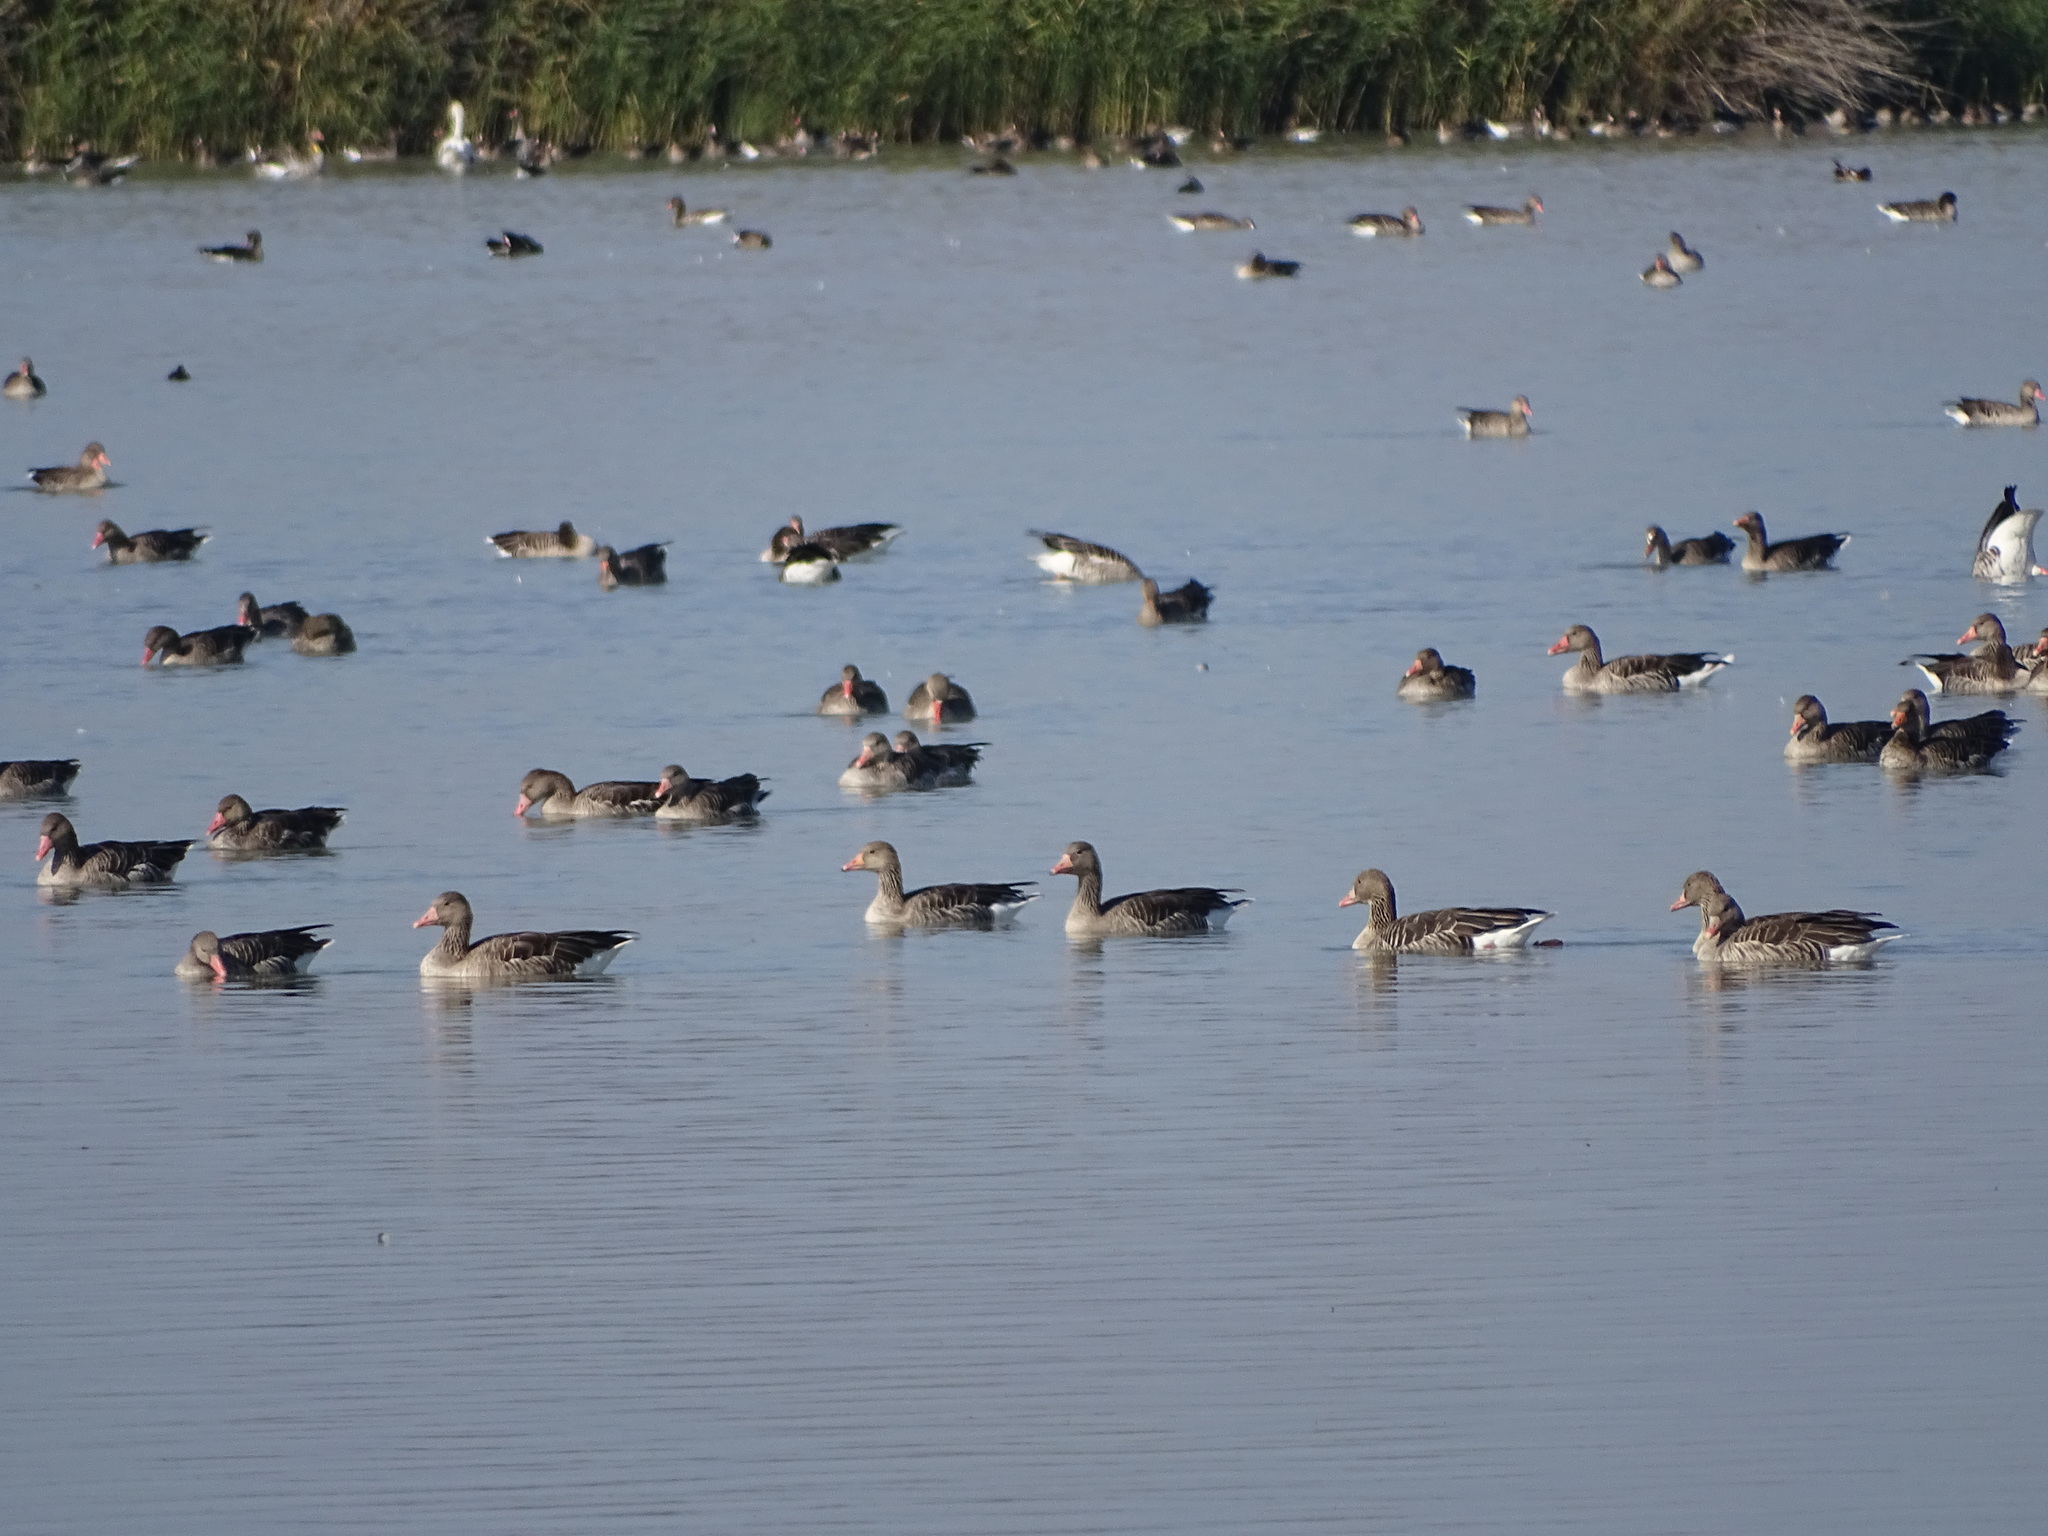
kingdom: Animalia
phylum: Chordata
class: Aves
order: Anseriformes
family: Anatidae
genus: Anser
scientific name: Anser anser
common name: Greylag goose
